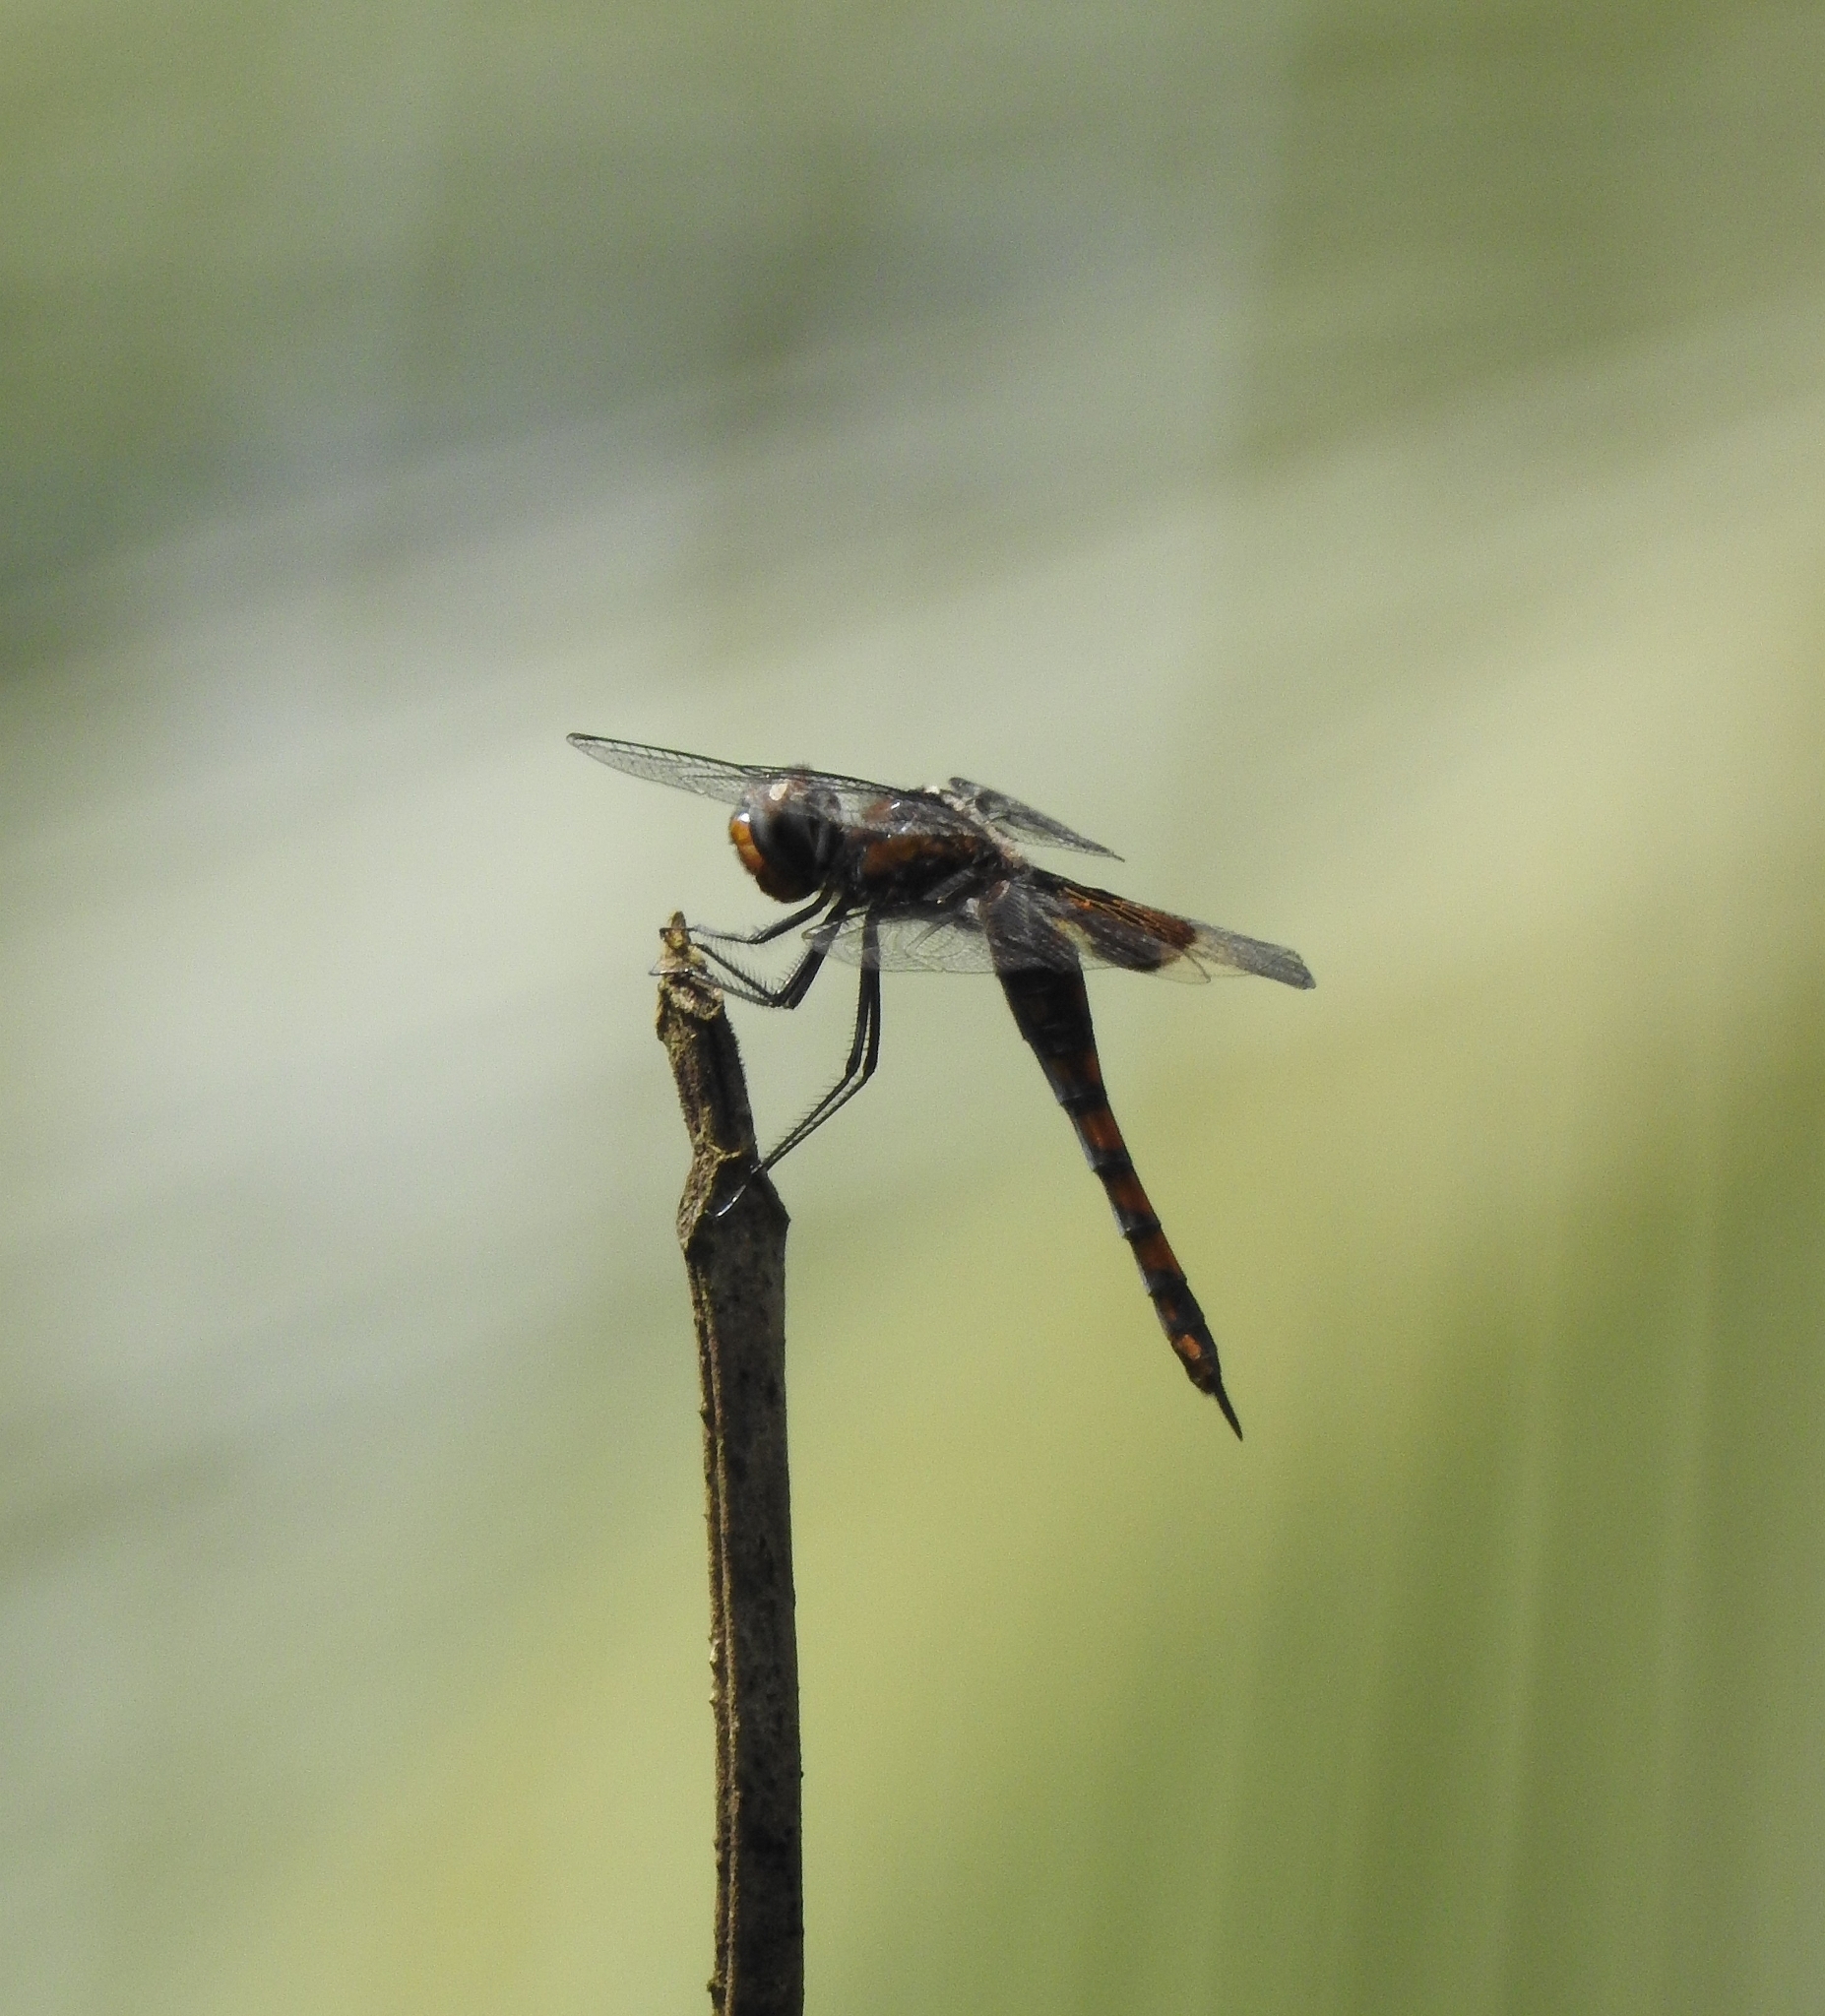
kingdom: Animalia
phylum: Arthropoda
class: Insecta
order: Odonata
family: Libellulidae
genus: Tramea
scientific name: Tramea limbata
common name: Ferruginous glider
